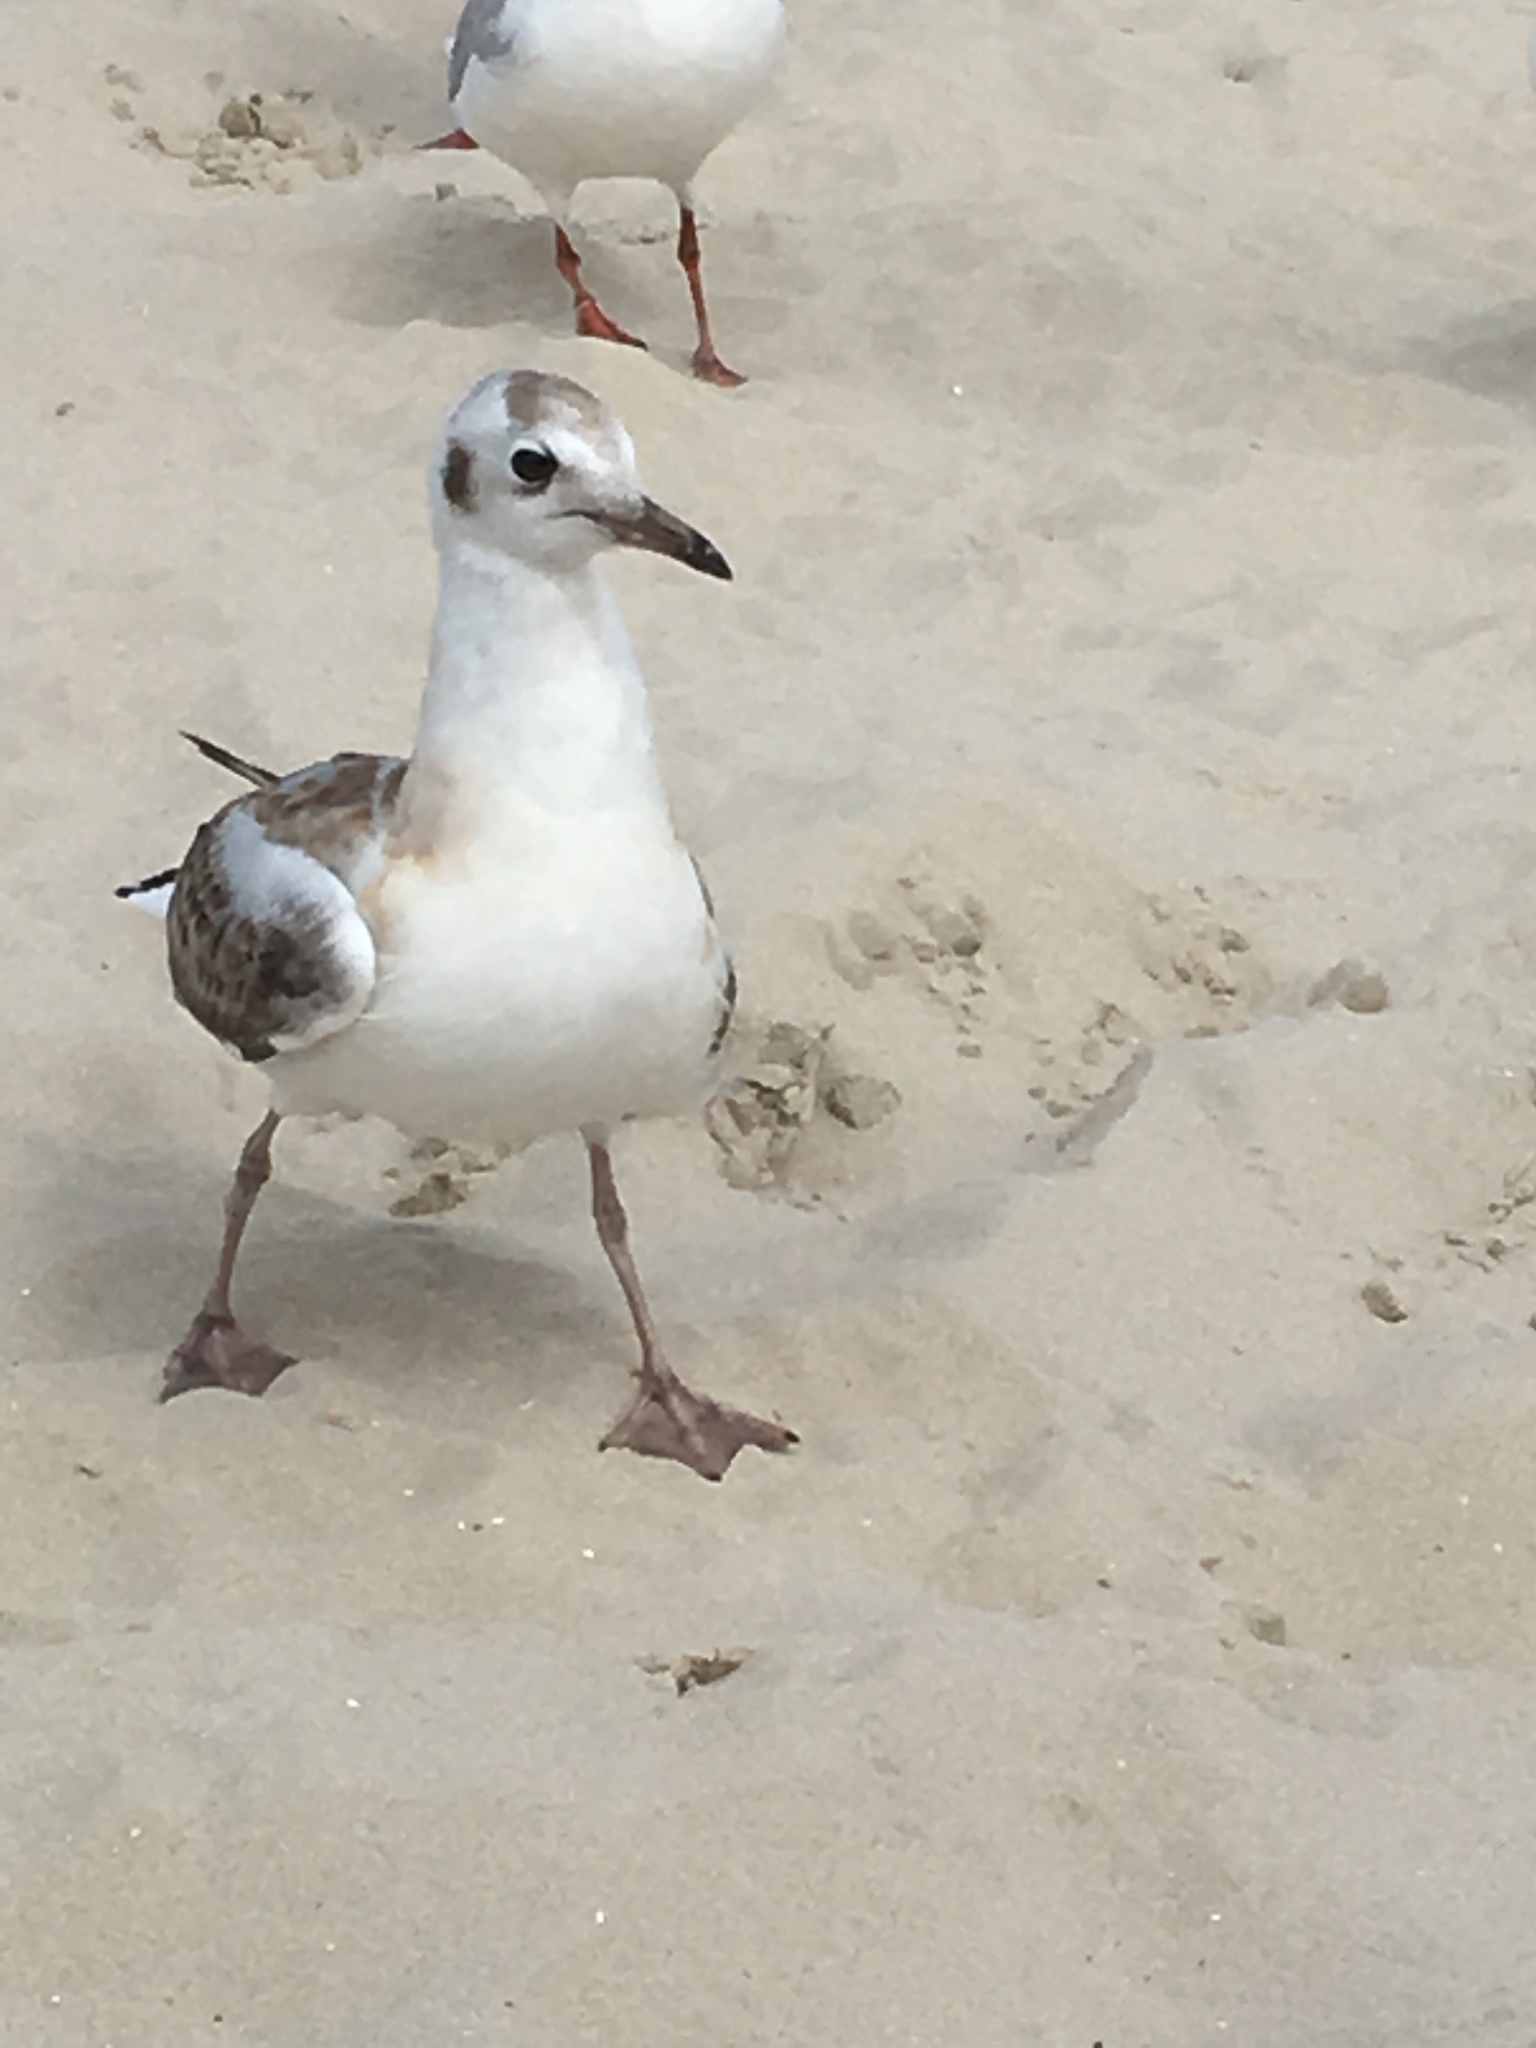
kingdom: Animalia
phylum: Chordata
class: Aves
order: Charadriiformes
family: Laridae
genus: Chroicocephalus
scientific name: Chroicocephalus ridibundus
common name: Black-headed gull
